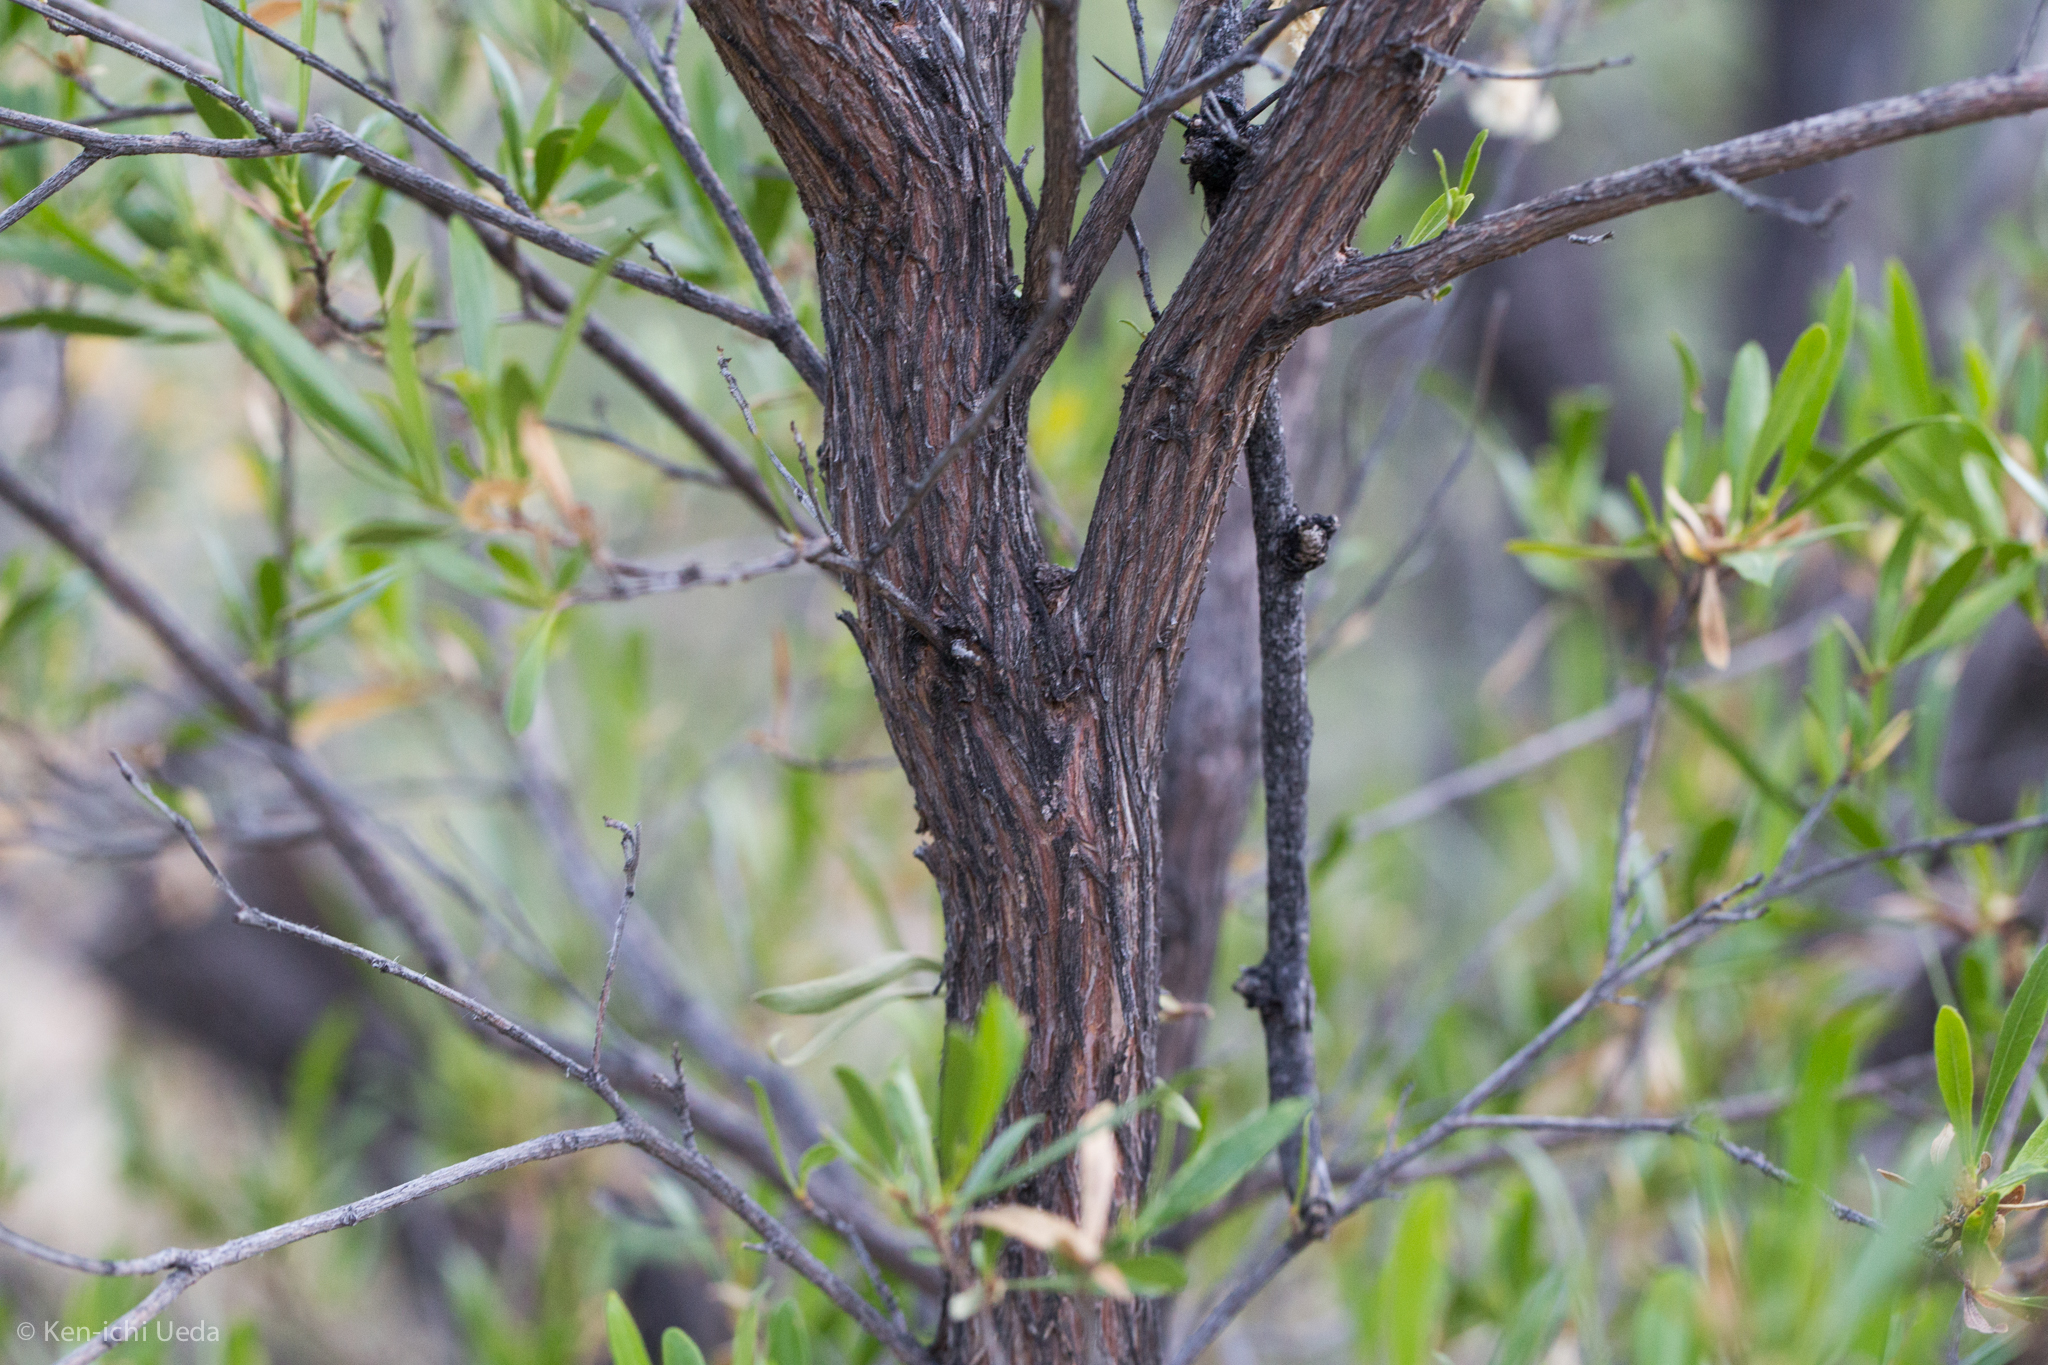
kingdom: Plantae
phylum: Tracheophyta
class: Magnoliopsida
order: Sapindales
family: Sapindaceae
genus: Dodonaea
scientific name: Dodonaea viscosa
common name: Hopbush
